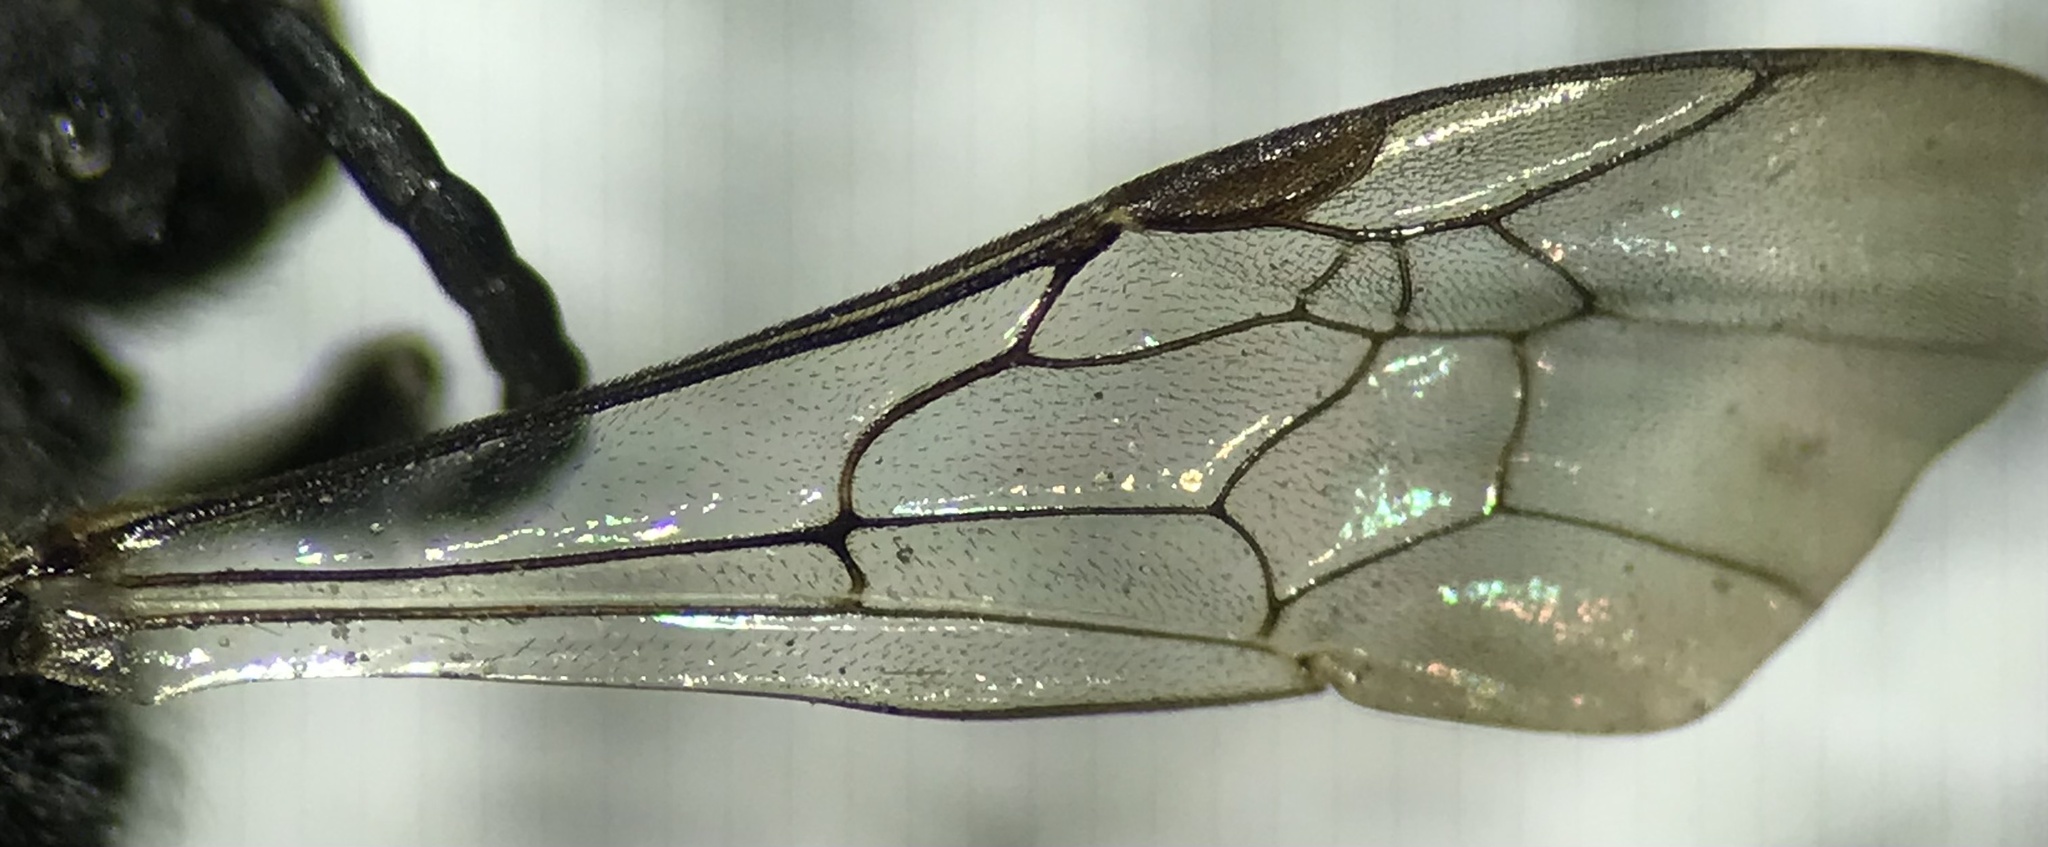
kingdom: Animalia
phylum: Arthropoda
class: Insecta
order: Hymenoptera
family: Halictidae
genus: Sphecodes
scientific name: Sphecodes
